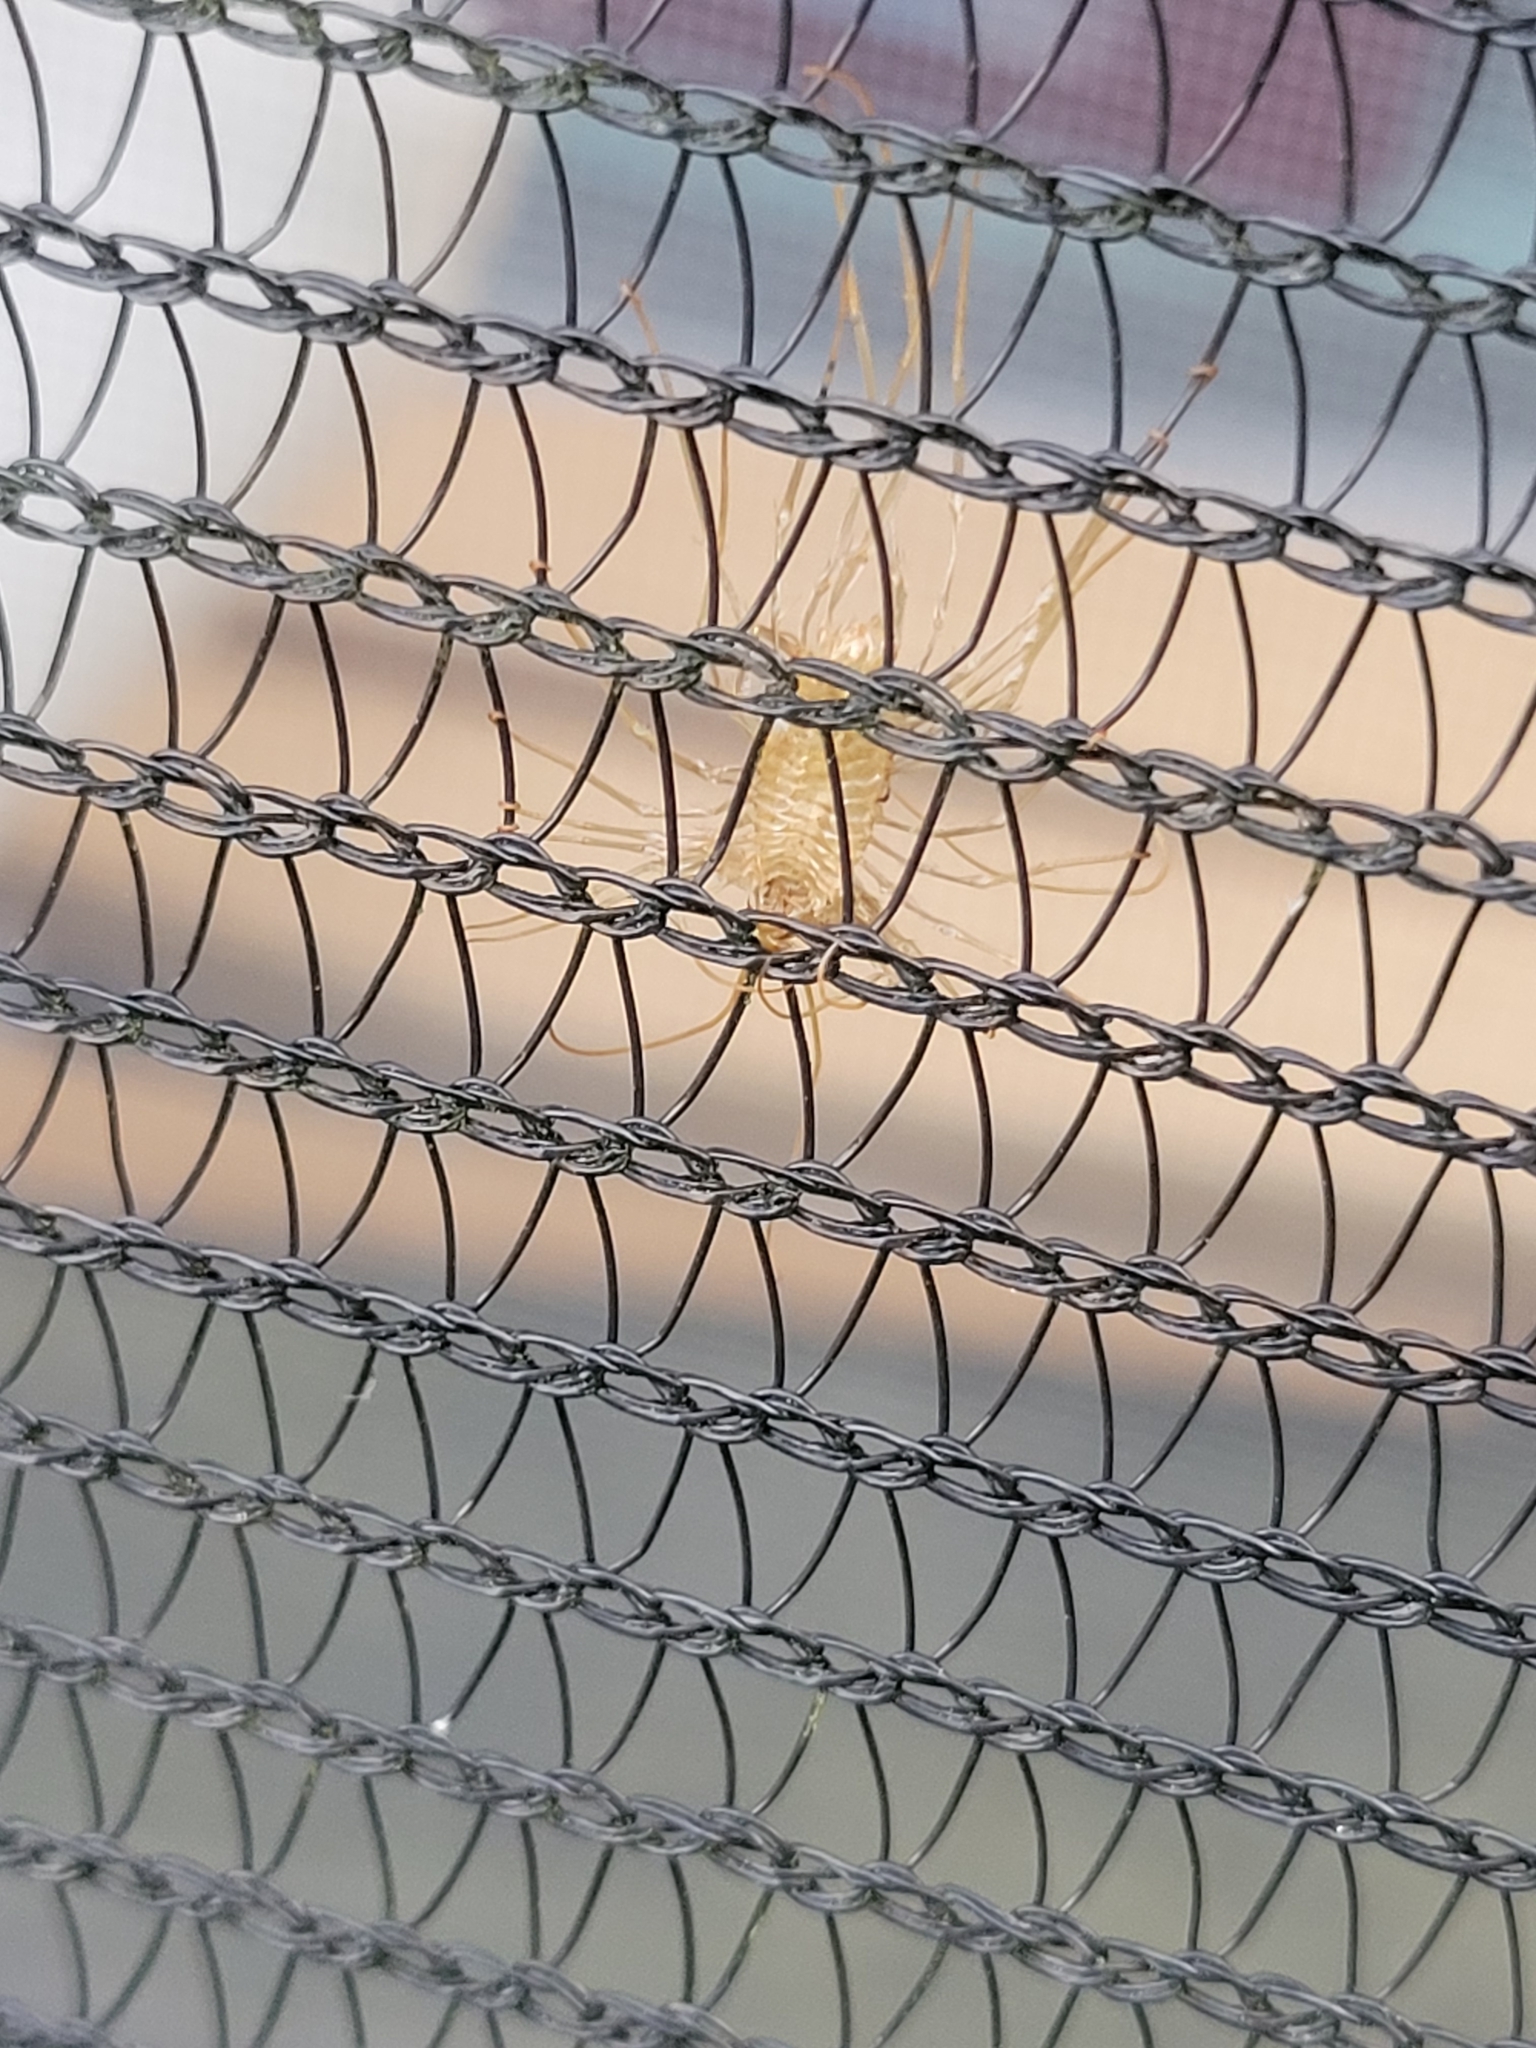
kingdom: Animalia
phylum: Arthropoda
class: Chilopoda
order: Scutigeromorpha
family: Scutigeridae
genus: Scutigera
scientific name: Scutigera coleoptrata
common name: House centipede
